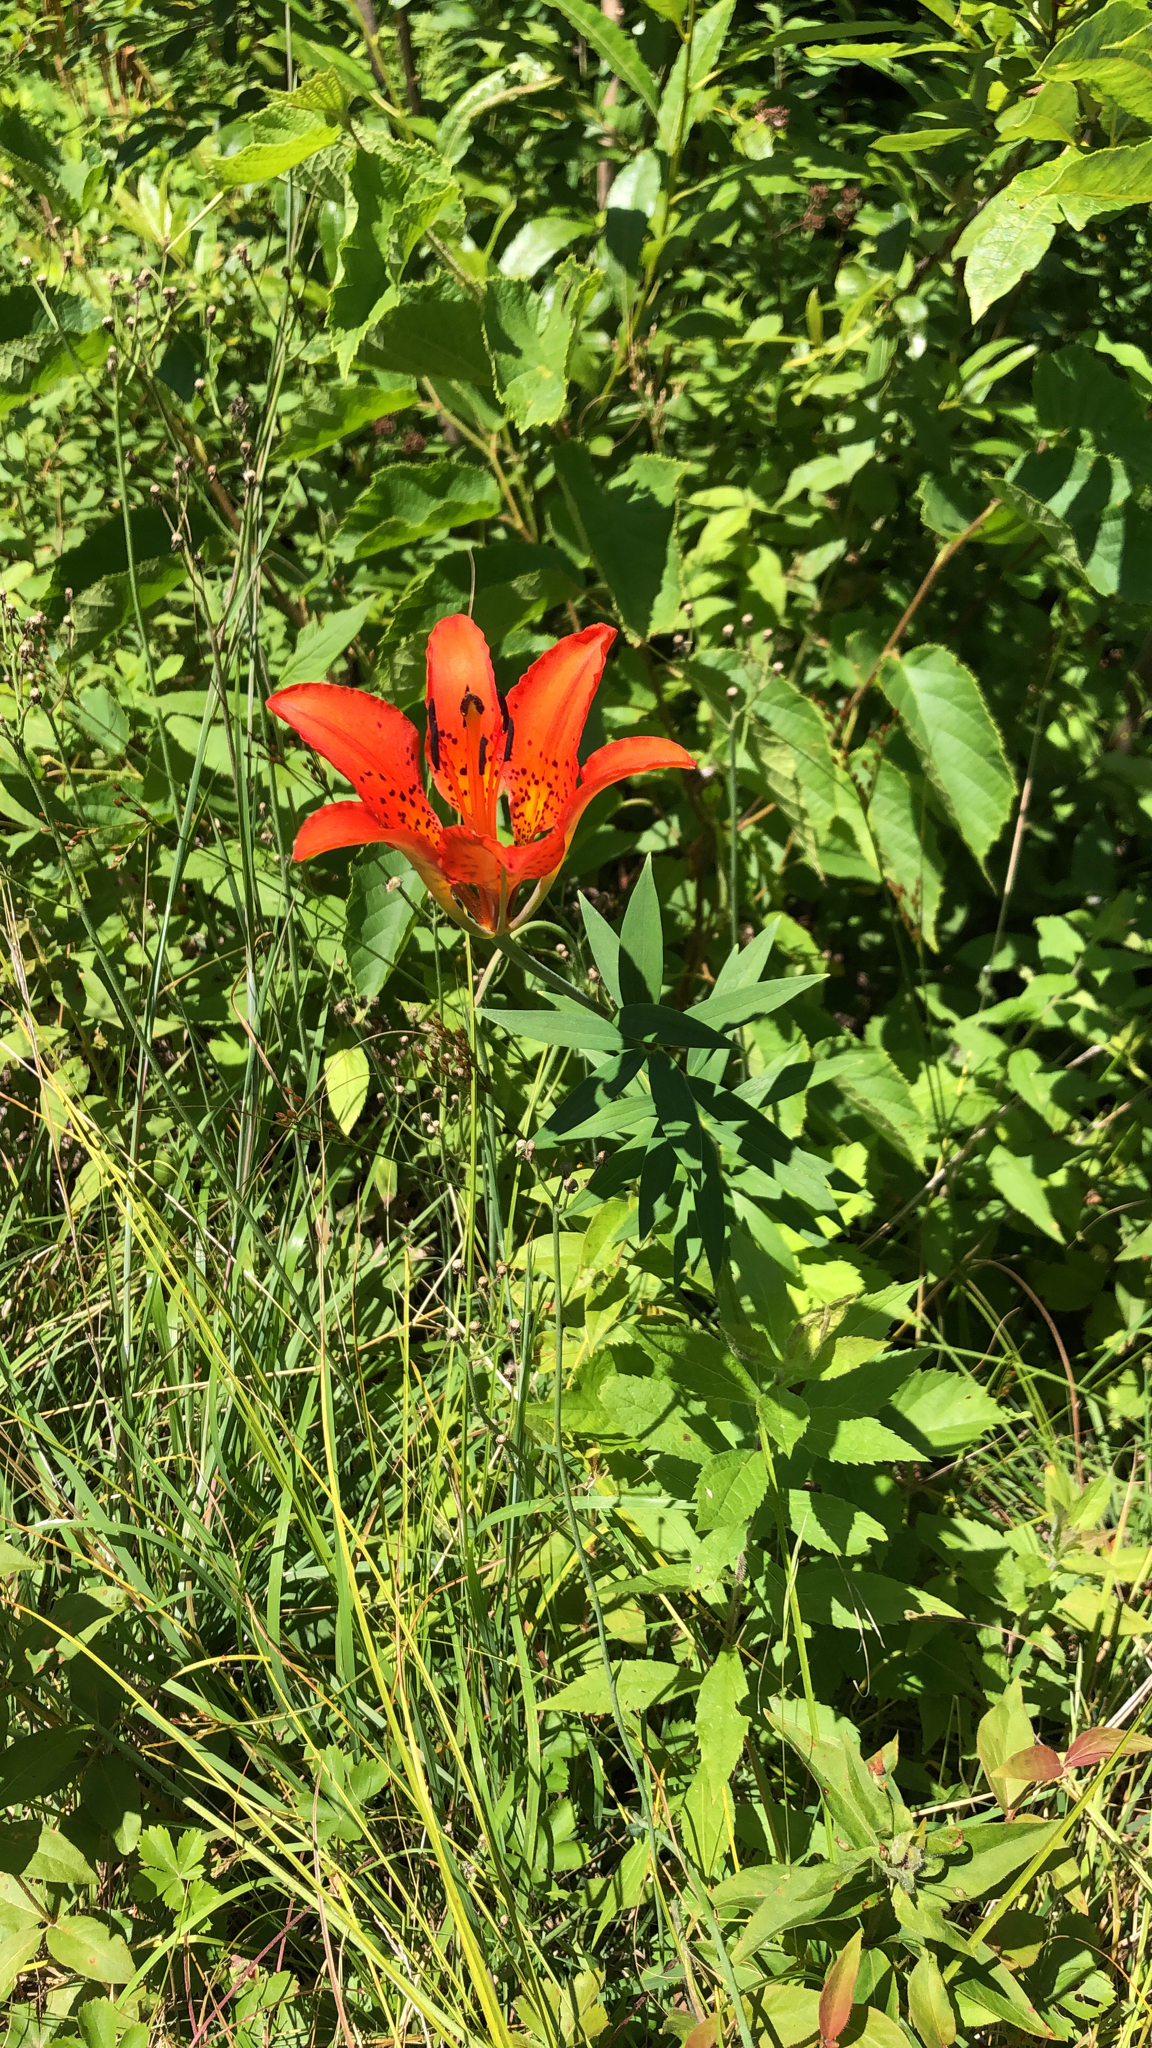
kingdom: Plantae
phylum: Tracheophyta
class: Liliopsida
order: Liliales
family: Liliaceae
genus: Lilium
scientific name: Lilium philadelphicum
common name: Red lily
